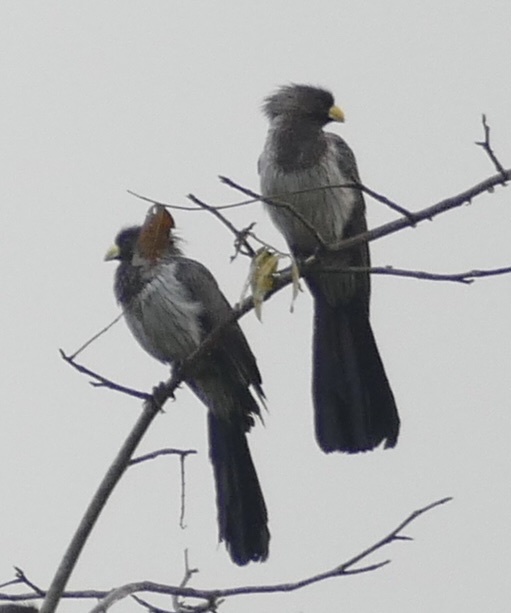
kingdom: Animalia
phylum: Chordata
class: Aves
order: Musophagiformes
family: Musophagidae
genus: Crinifer
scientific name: Crinifer piscator
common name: Western plantain-eater
